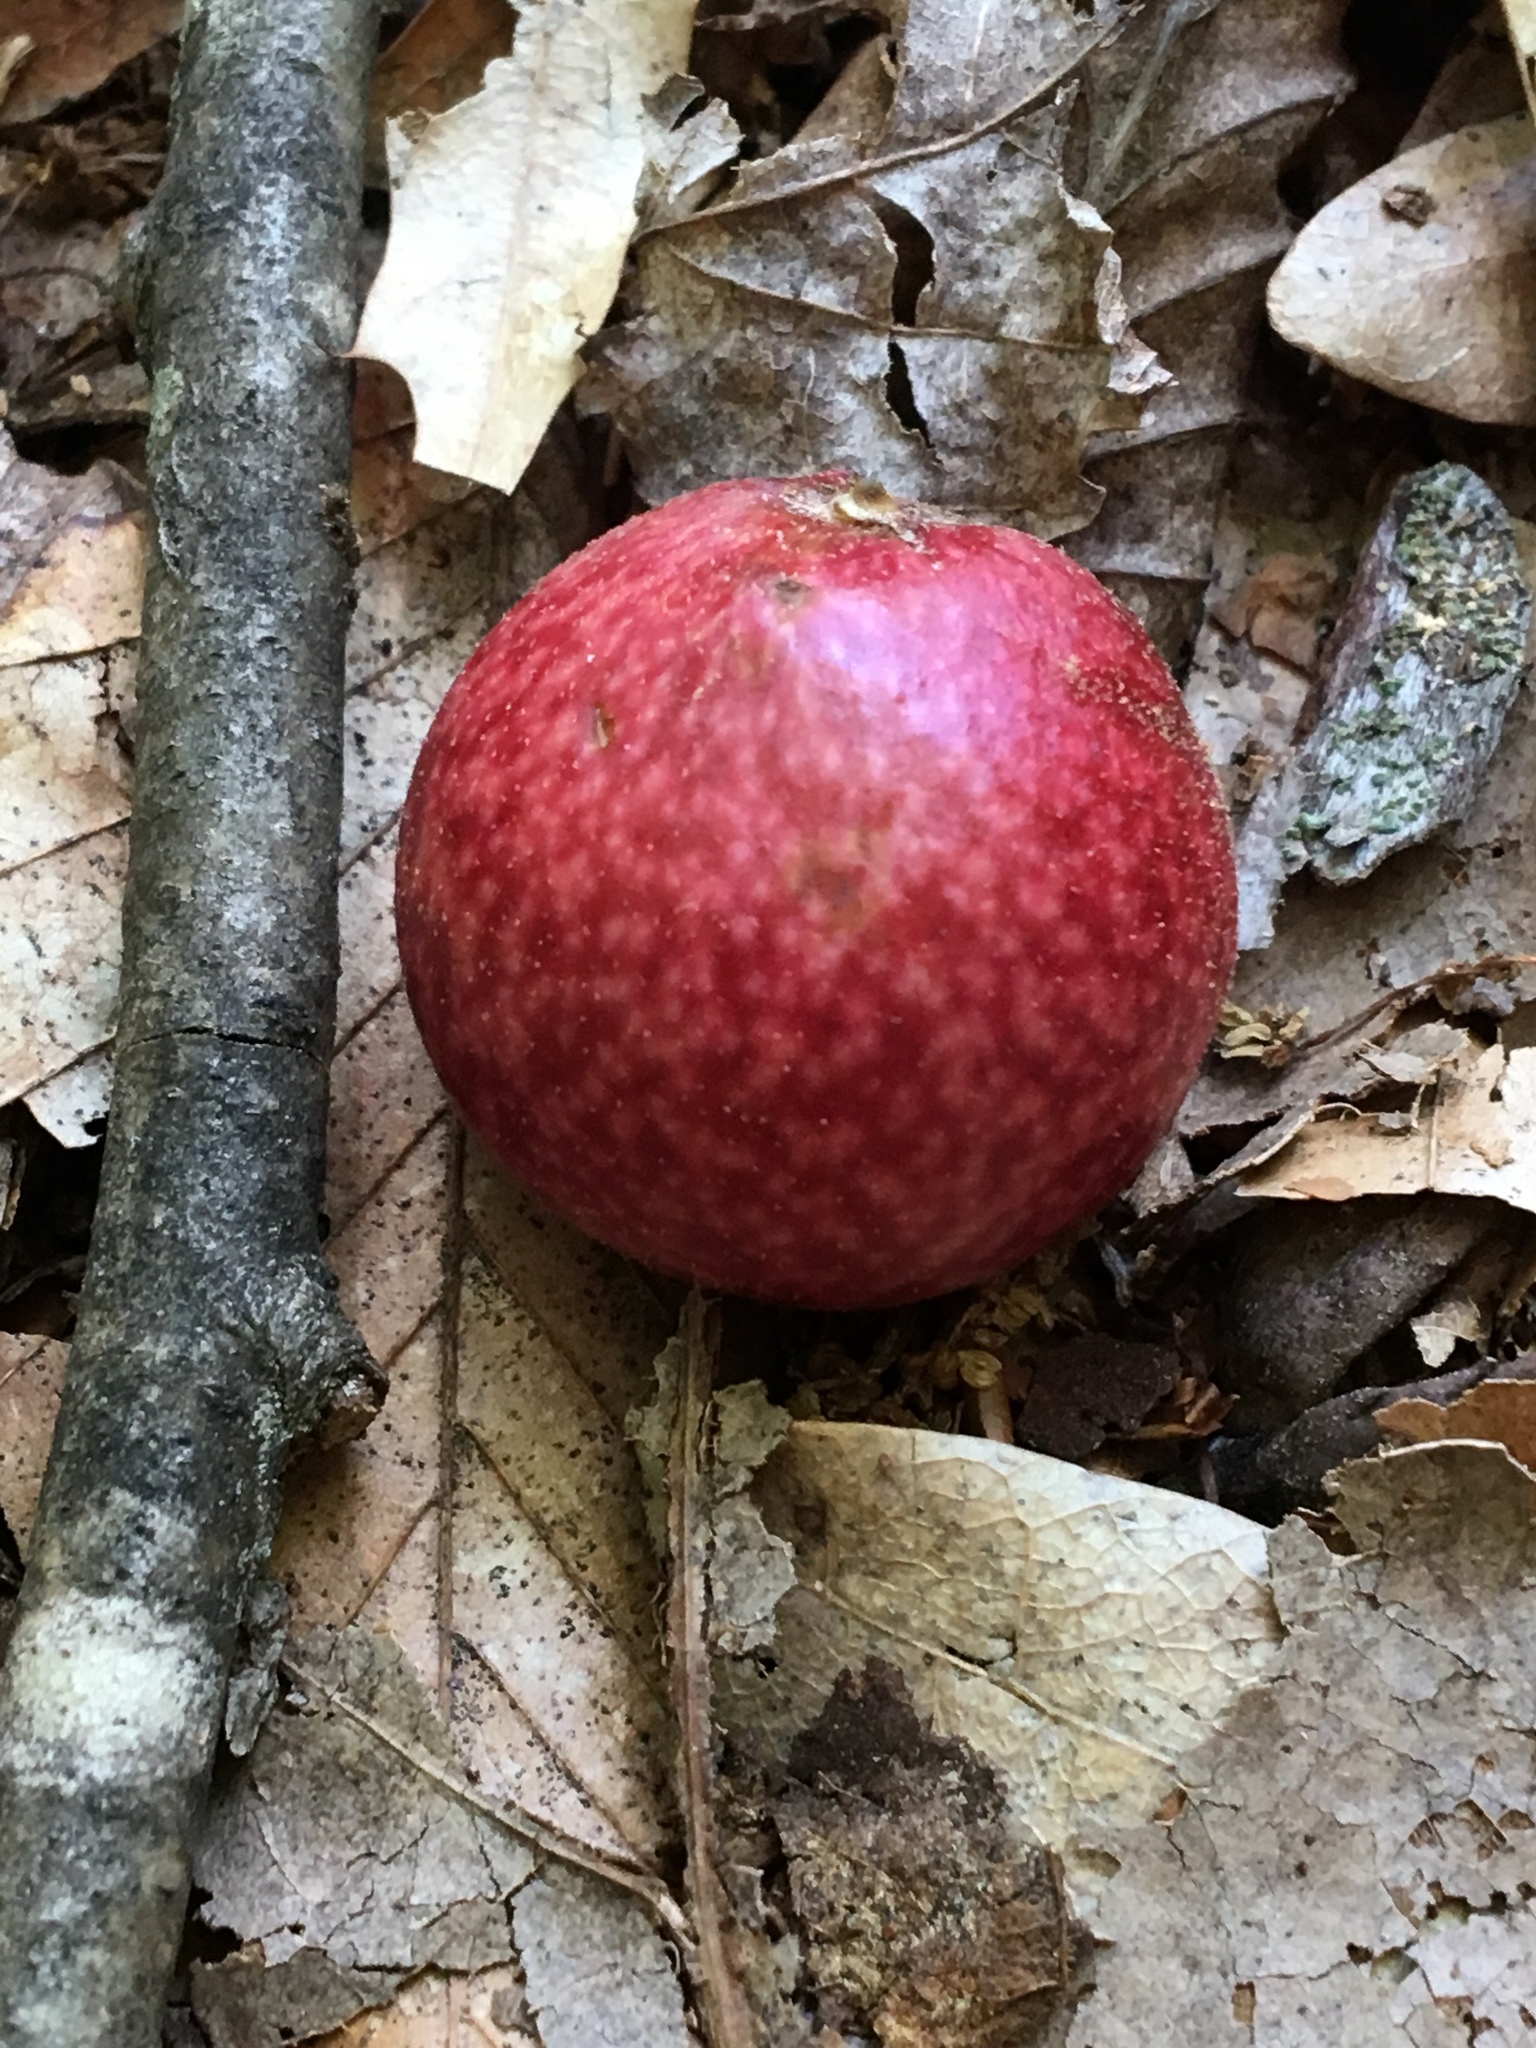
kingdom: Animalia
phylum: Arthropoda
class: Insecta
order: Hymenoptera
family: Cynipidae
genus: Amphibolips
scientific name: Amphibolips
